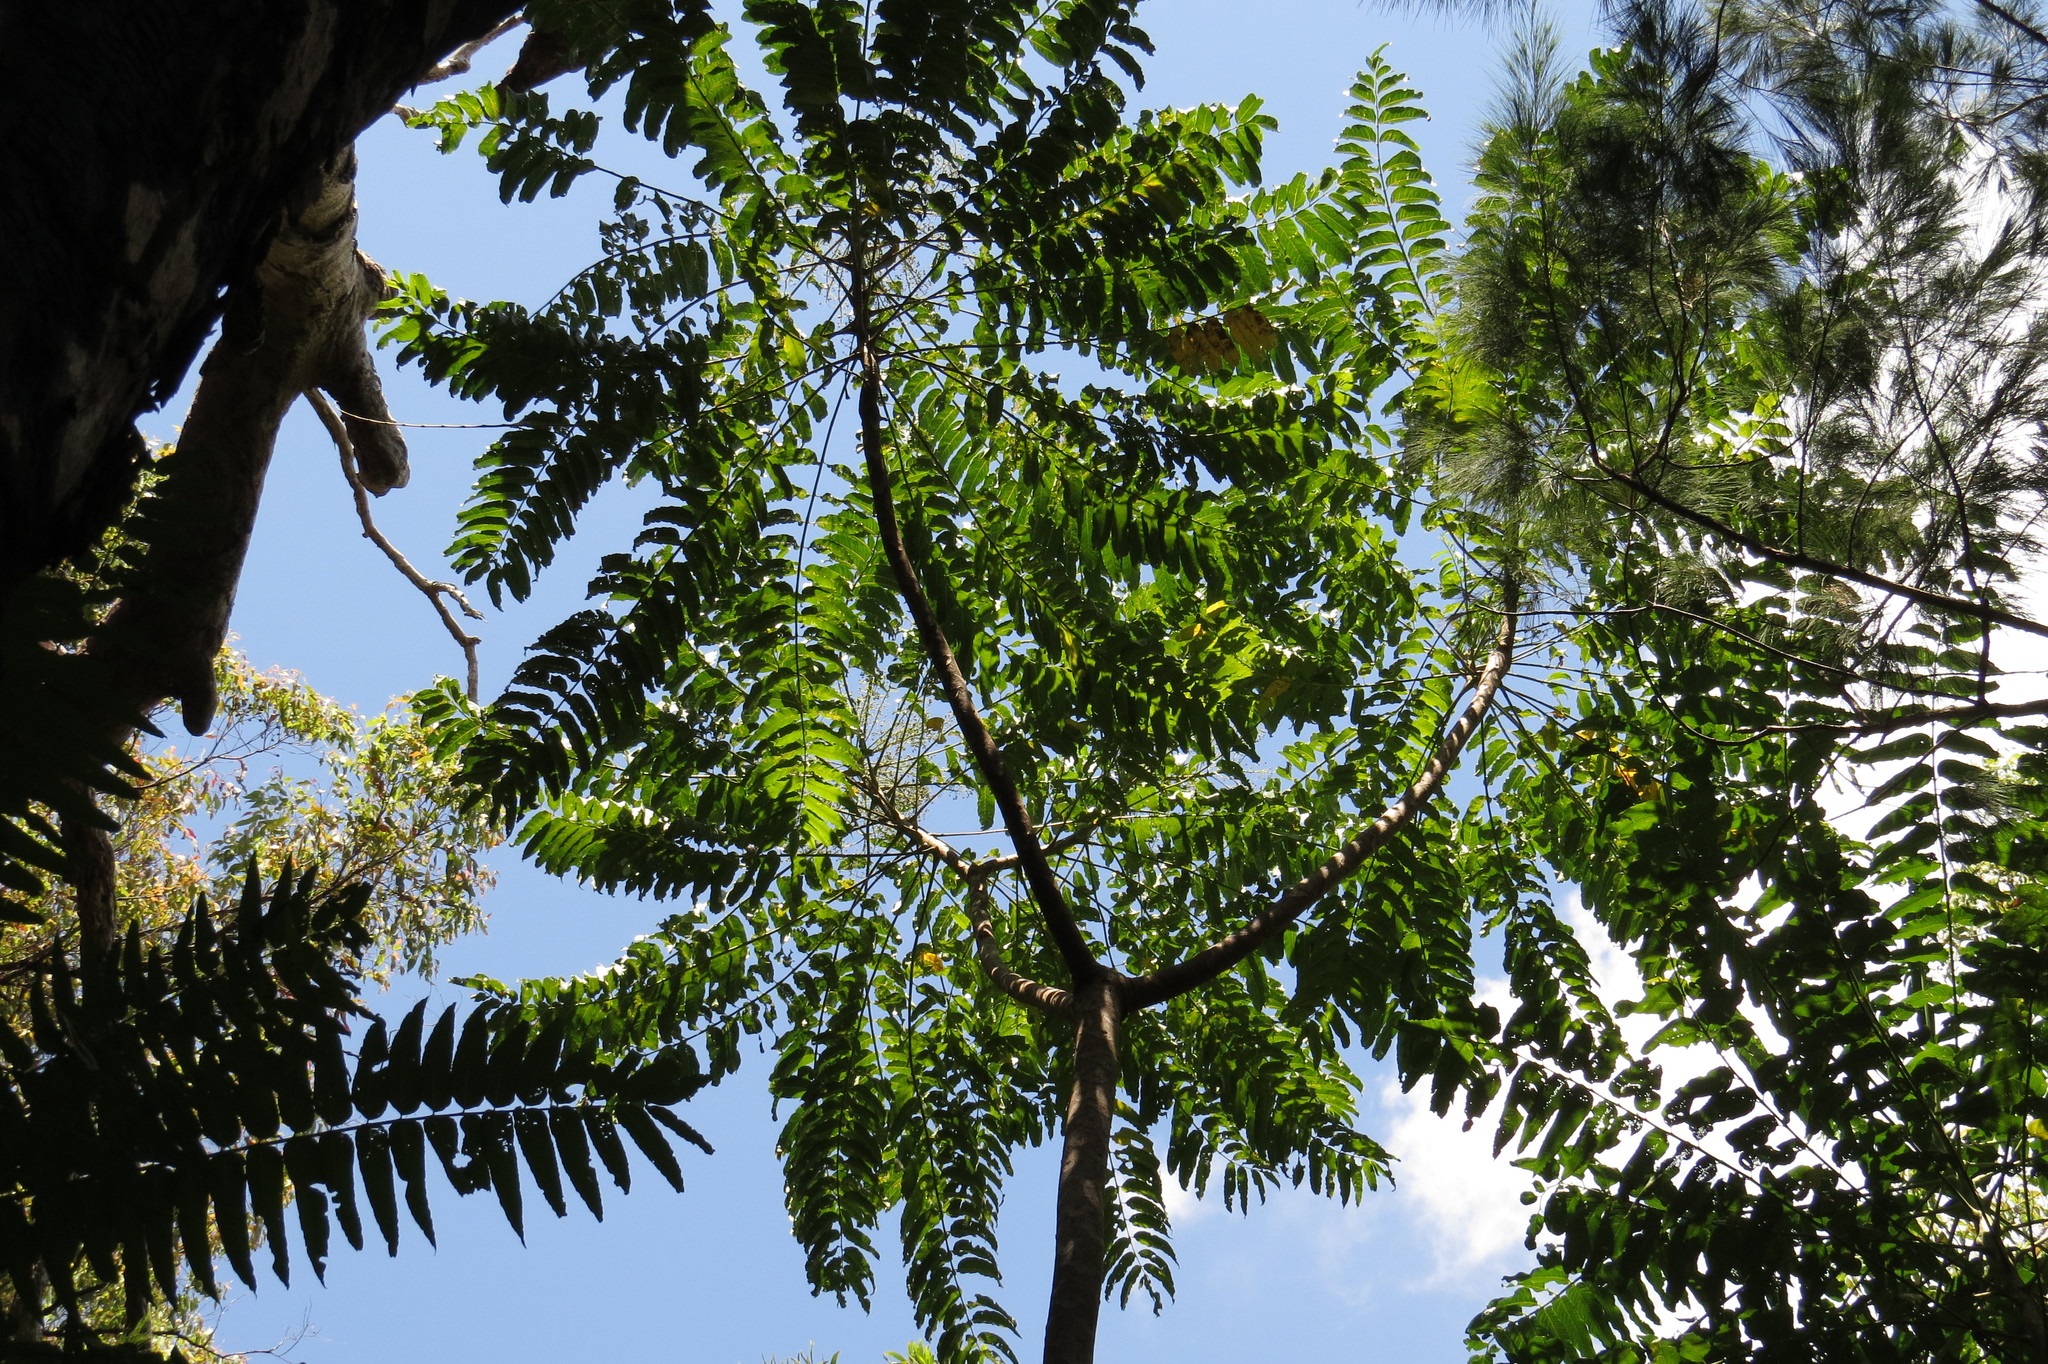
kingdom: Plantae
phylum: Tracheophyta
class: Magnoliopsida
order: Apiales
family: Araliaceae
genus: Polyscias
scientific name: Polyscias murrayi
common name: Pencil cedar
